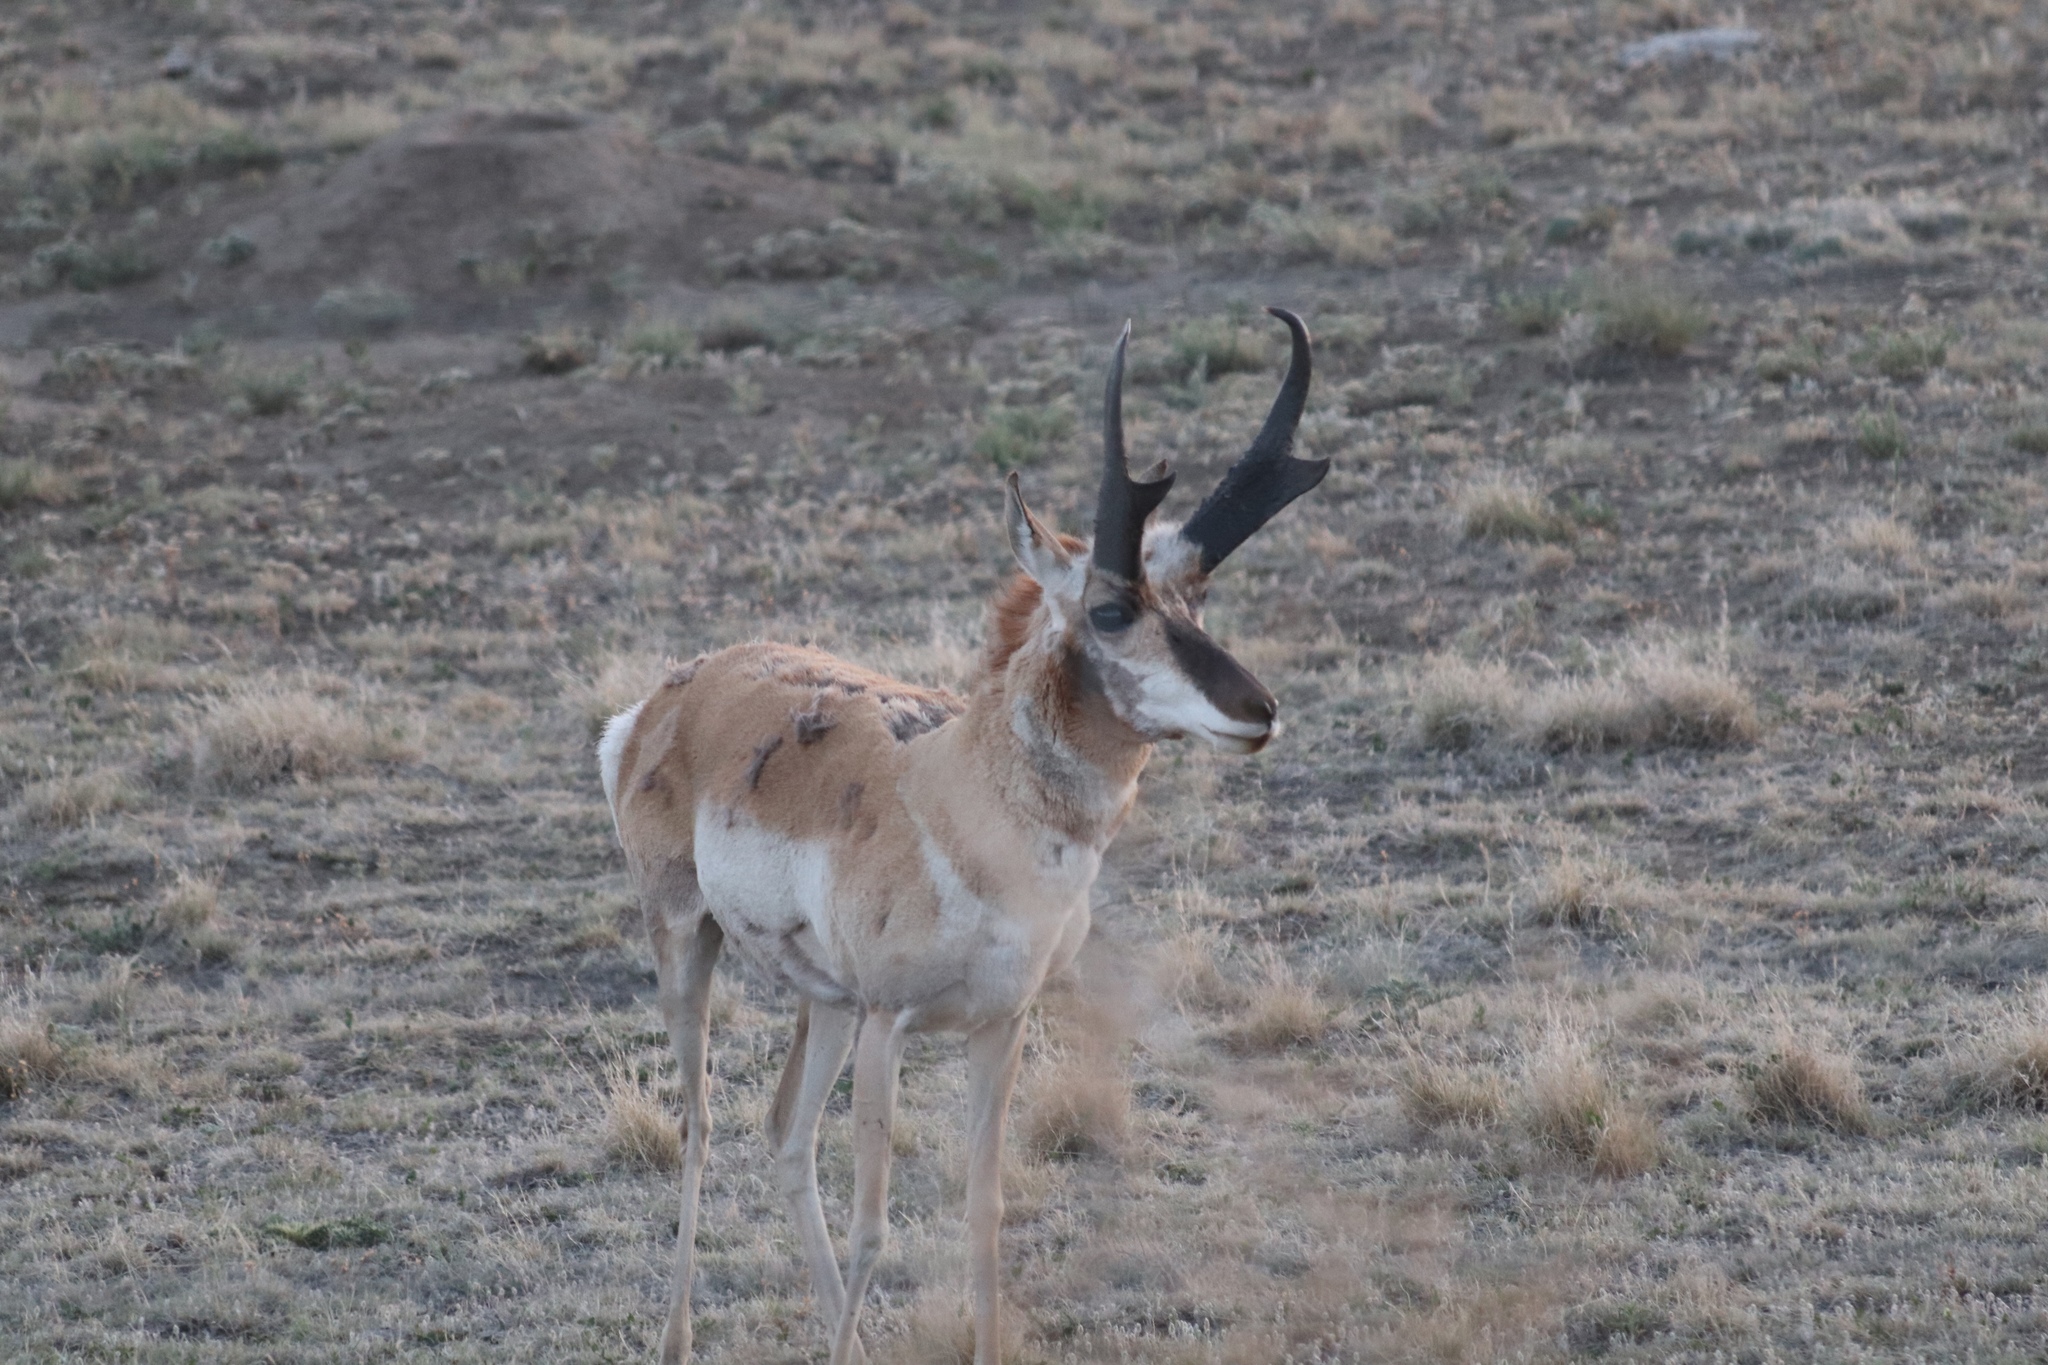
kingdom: Animalia
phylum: Chordata
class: Mammalia
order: Artiodactyla
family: Antilocapridae
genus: Antilocapra
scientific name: Antilocapra americana
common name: Pronghorn
